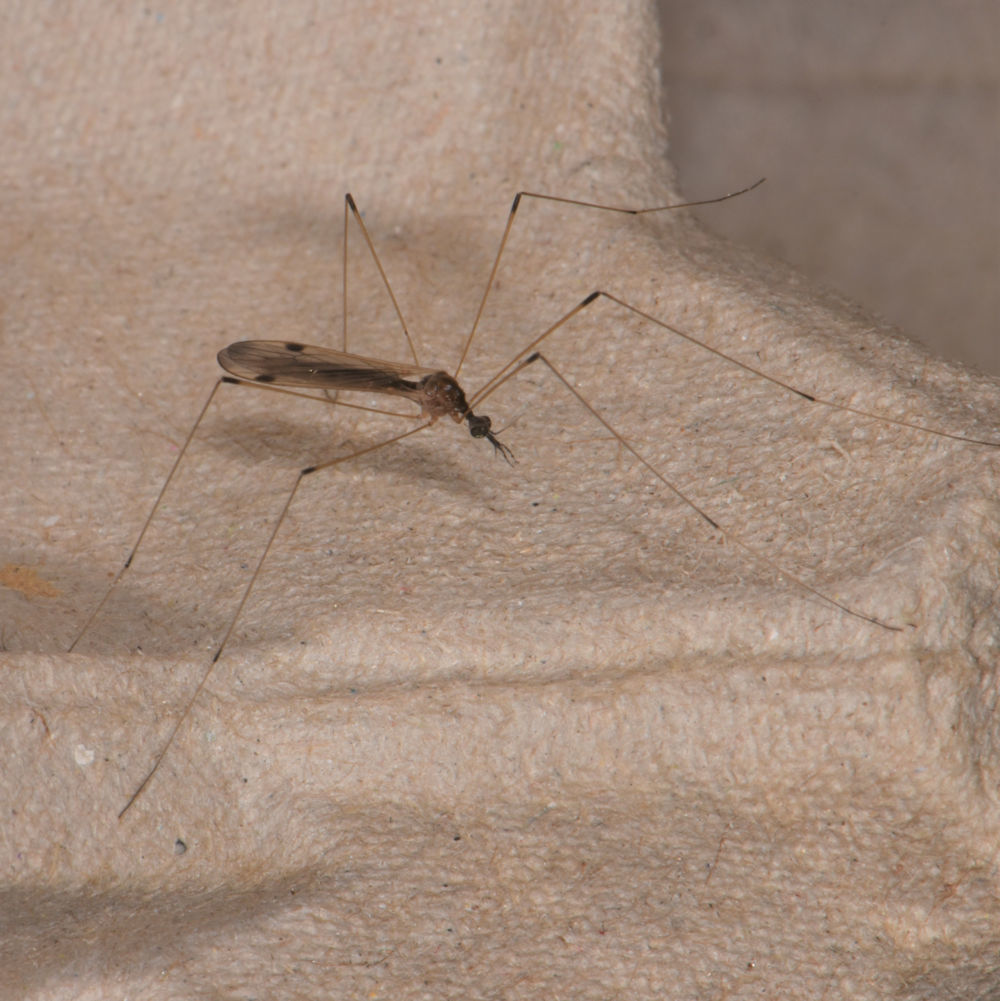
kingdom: Animalia
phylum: Arthropoda
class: Insecta
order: Diptera
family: Limoniidae
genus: Helius
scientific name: Helius flavipes
